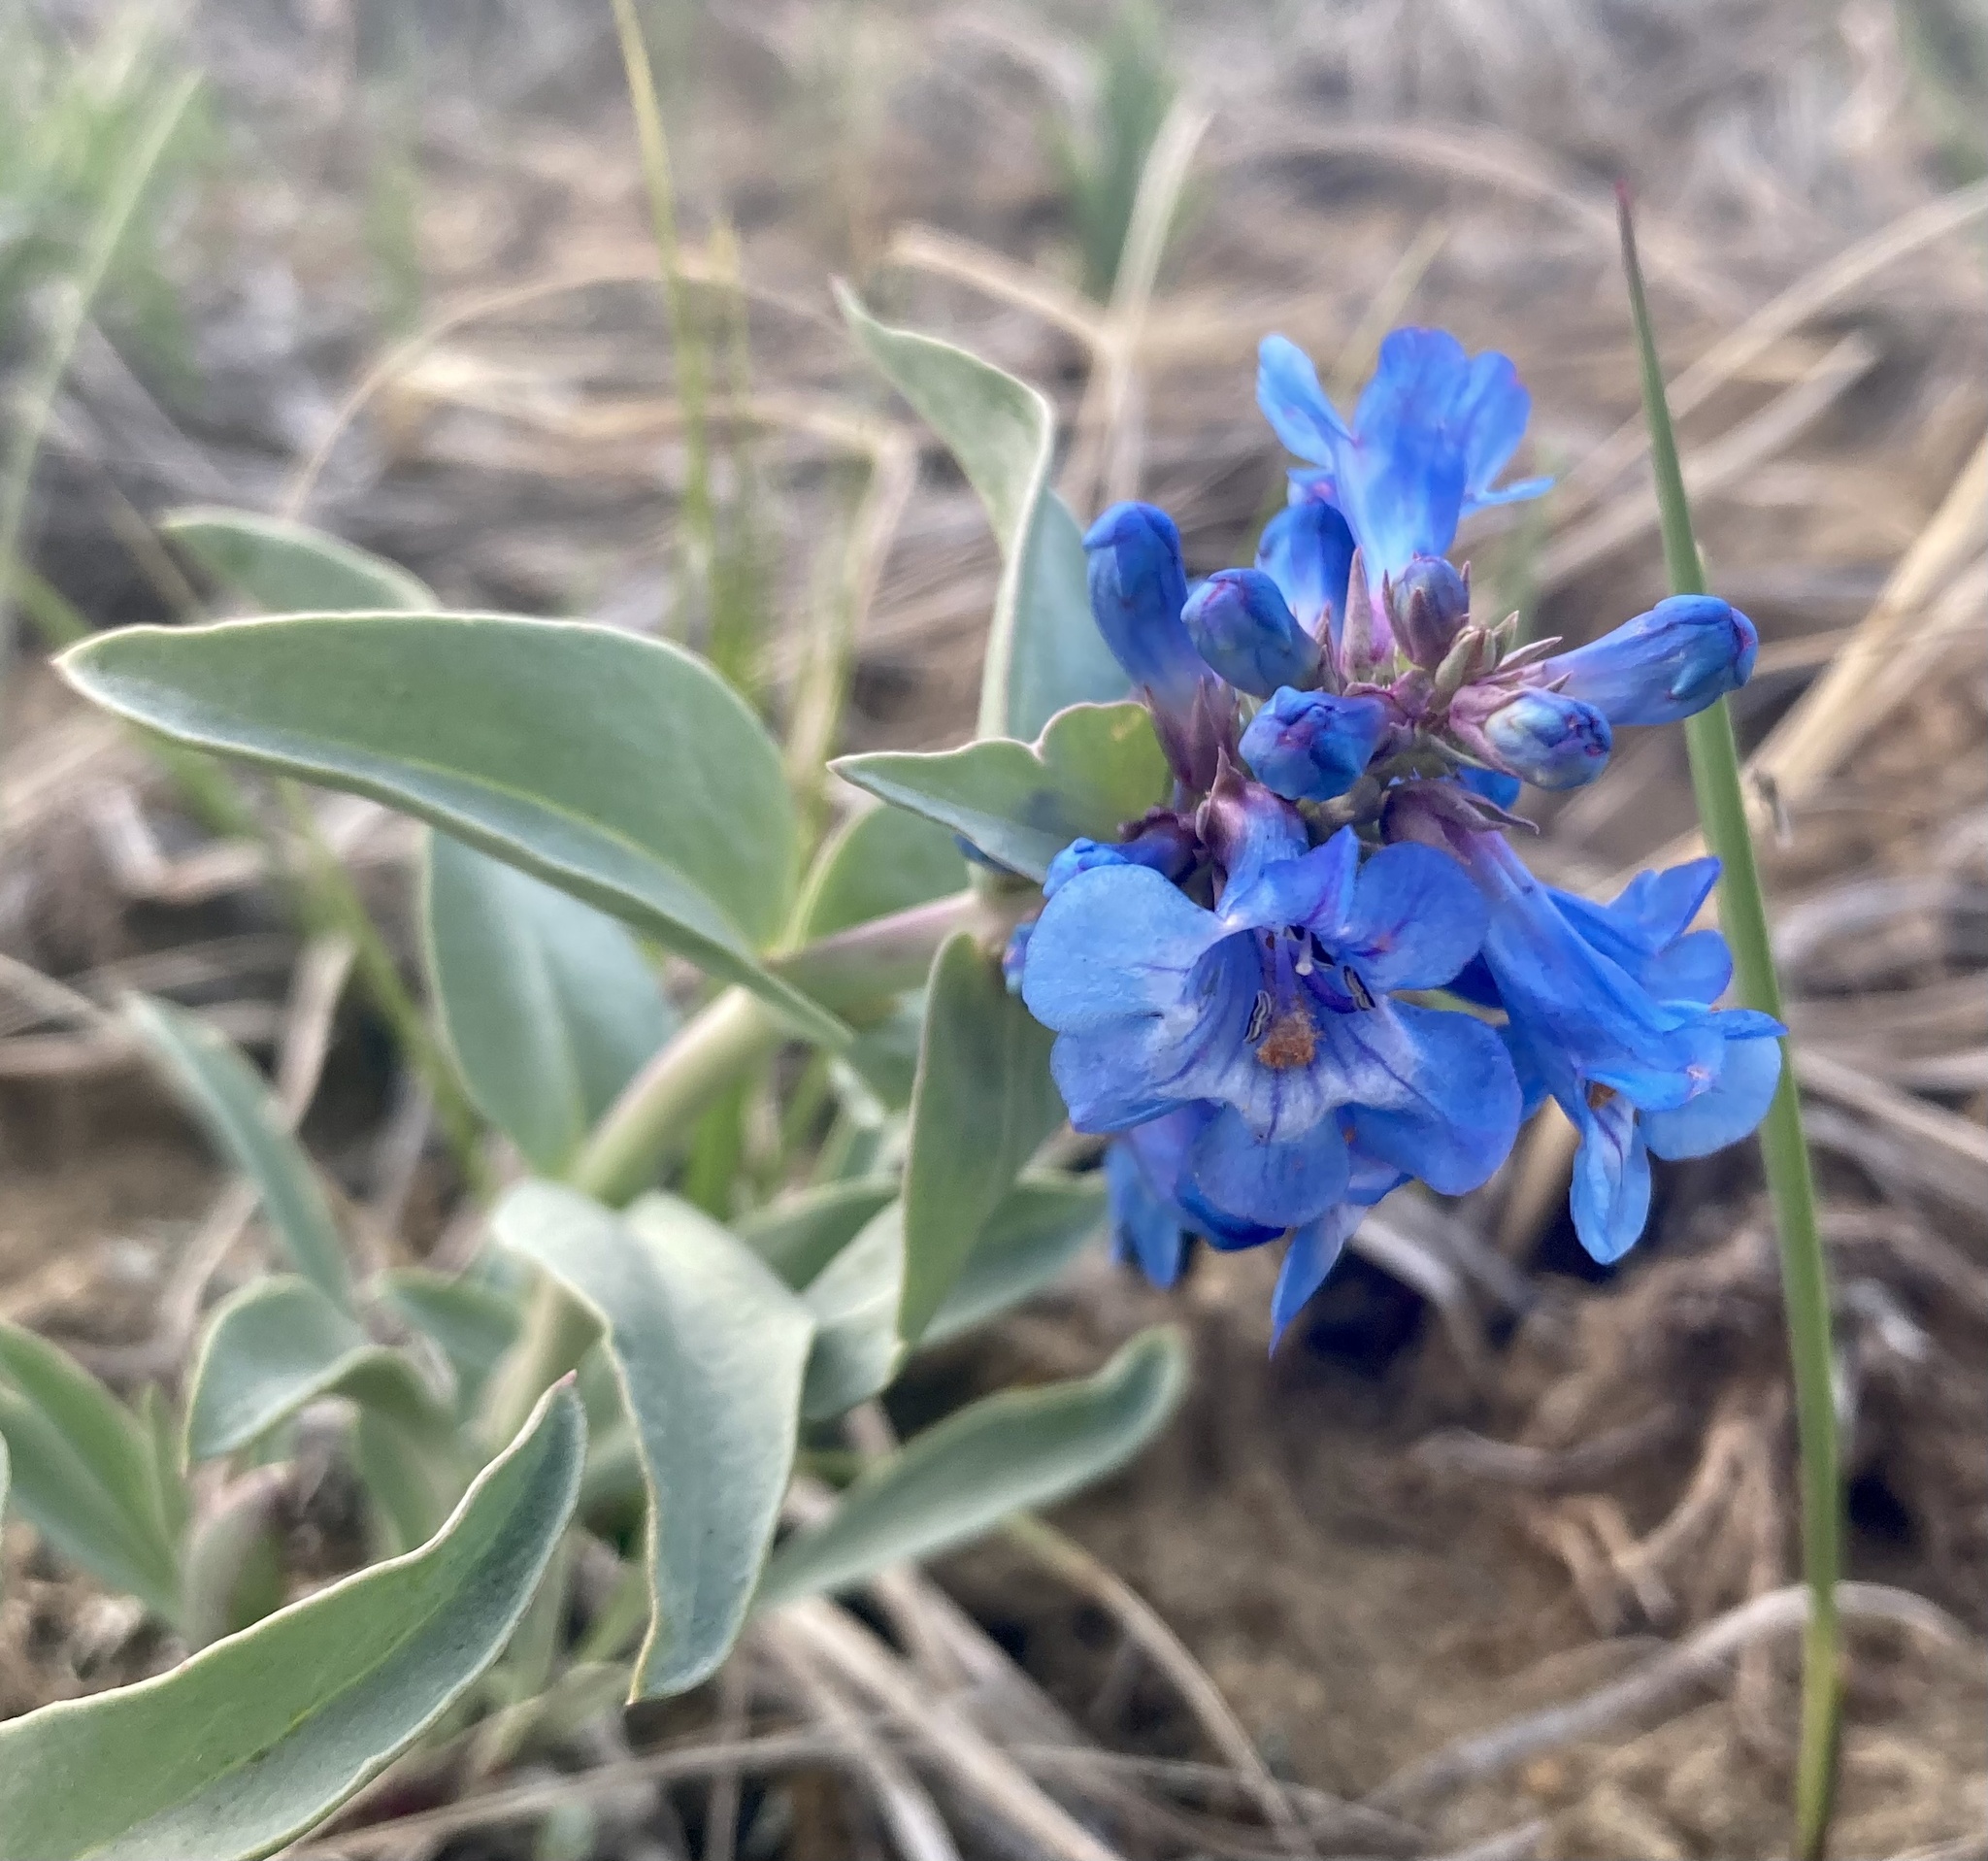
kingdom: Plantae
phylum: Tracheophyta
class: Magnoliopsida
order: Lamiales
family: Plantaginaceae
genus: Penstemon
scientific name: Penstemon nitidus
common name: Shining penstemon
